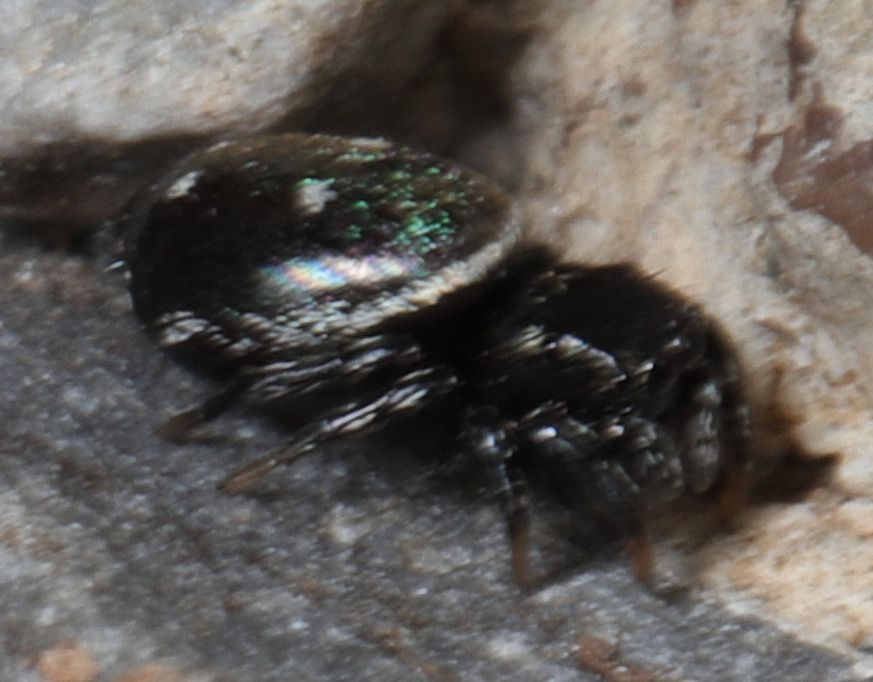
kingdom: Animalia
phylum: Arthropoda
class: Arachnida
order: Araneae
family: Salticidae
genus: Heliophanus
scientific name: Heliophanus kochii
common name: Sun jumping spider
